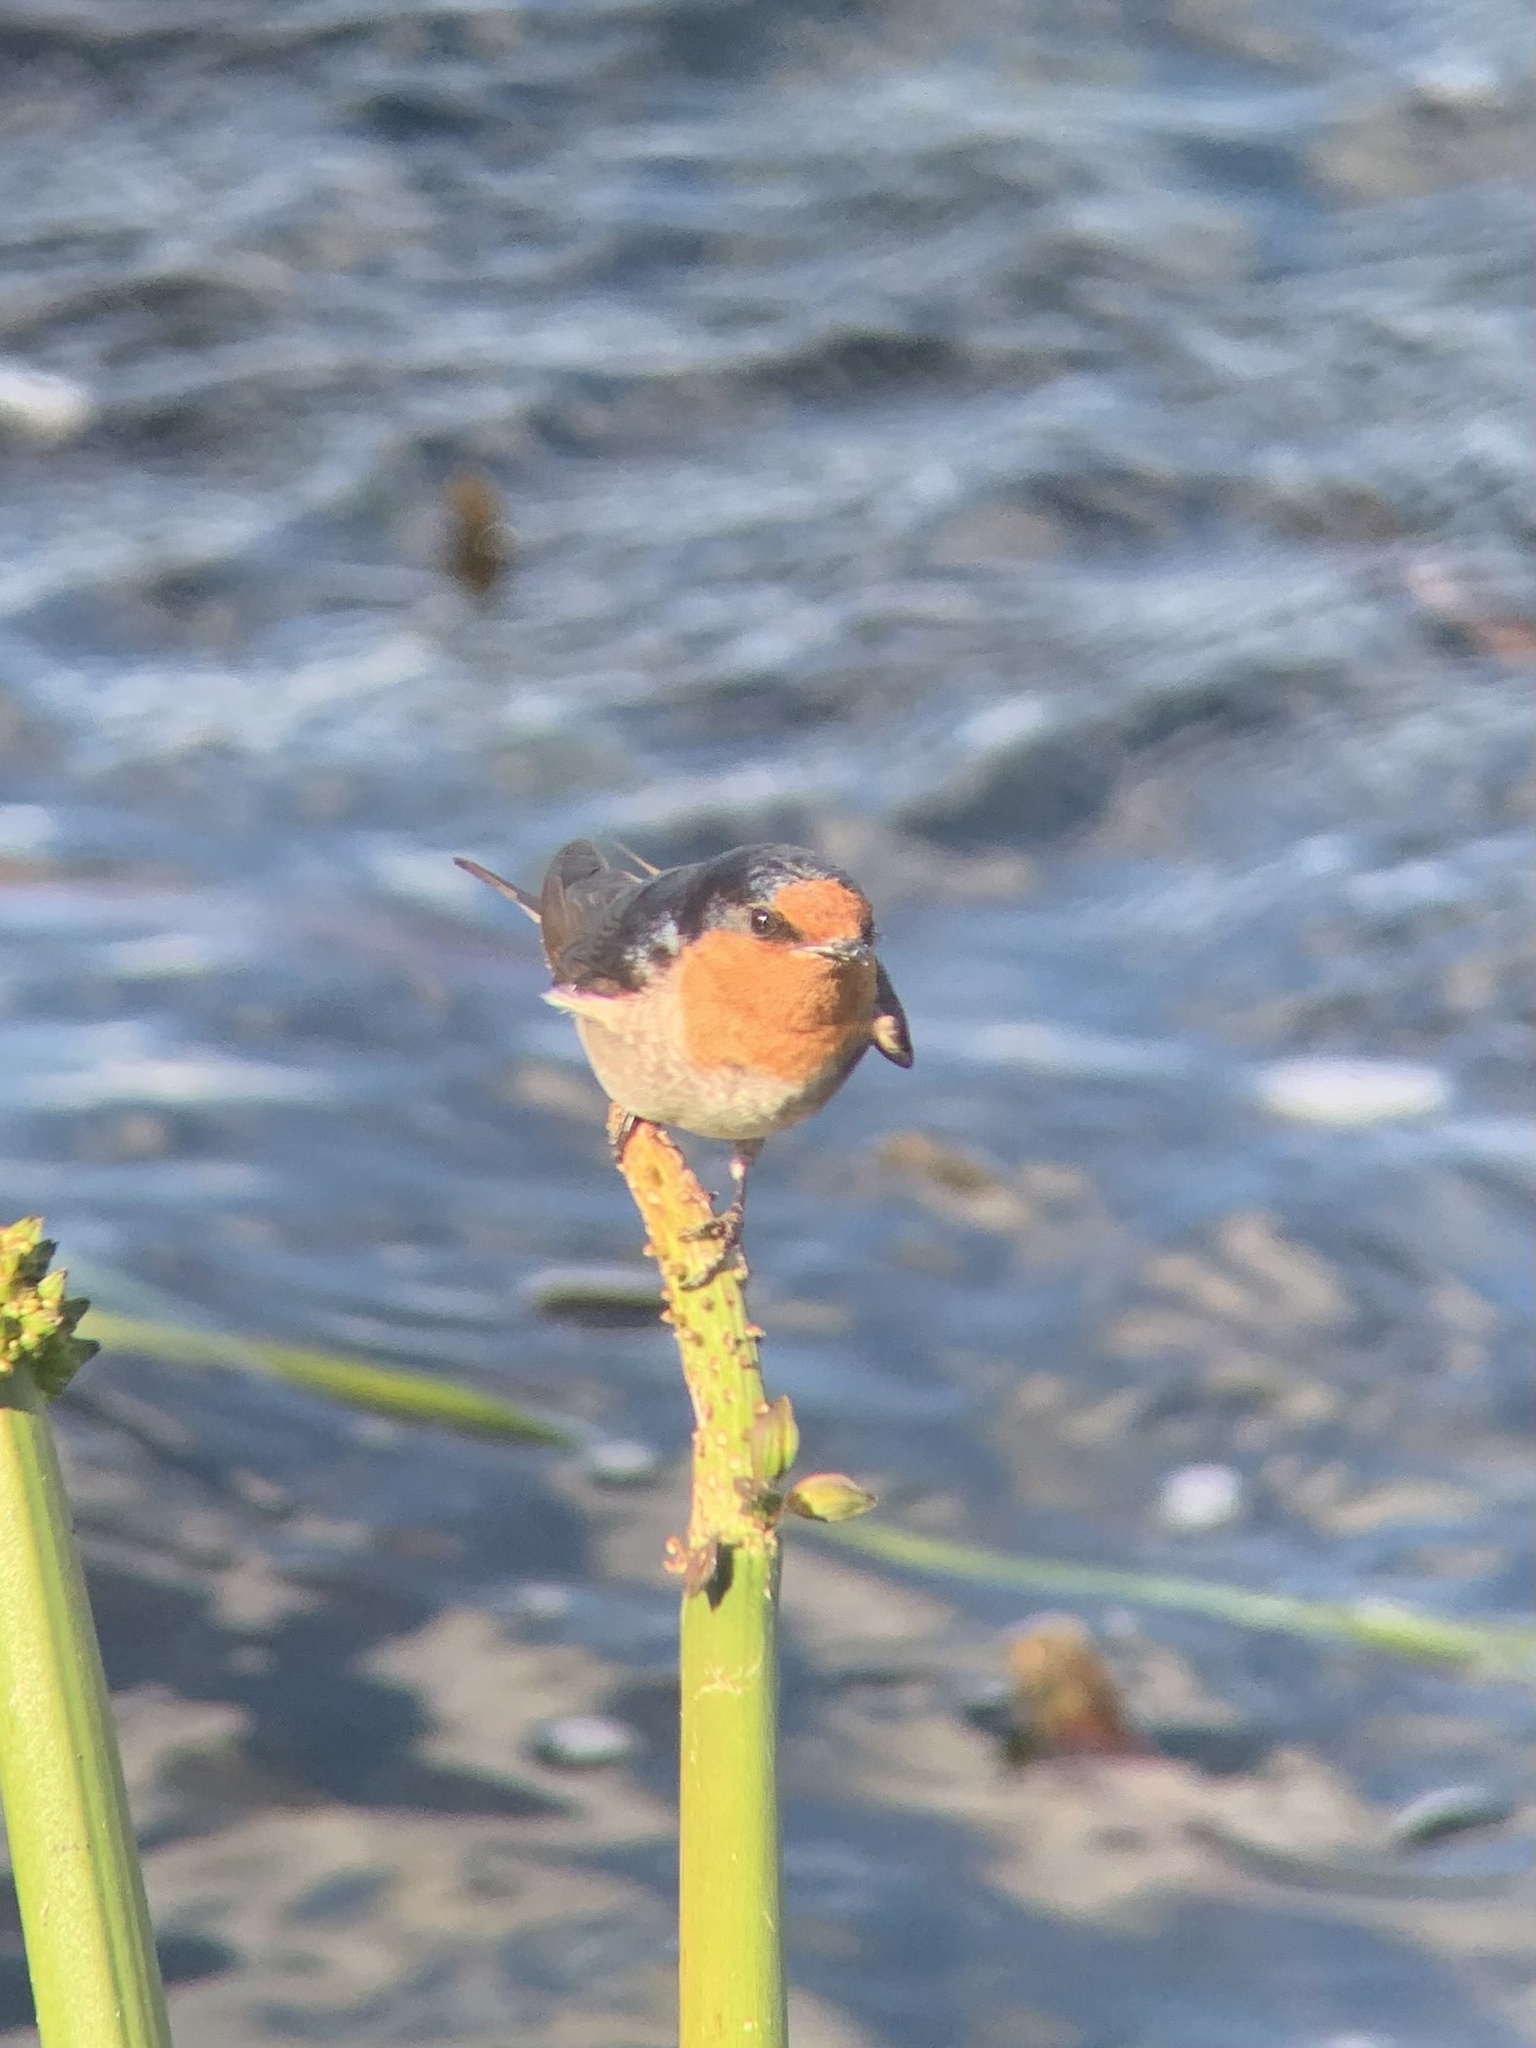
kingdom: Animalia
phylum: Chordata
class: Aves
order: Passeriformes
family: Hirundinidae
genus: Hirundo
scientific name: Hirundo neoxena
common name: Welcome swallow
